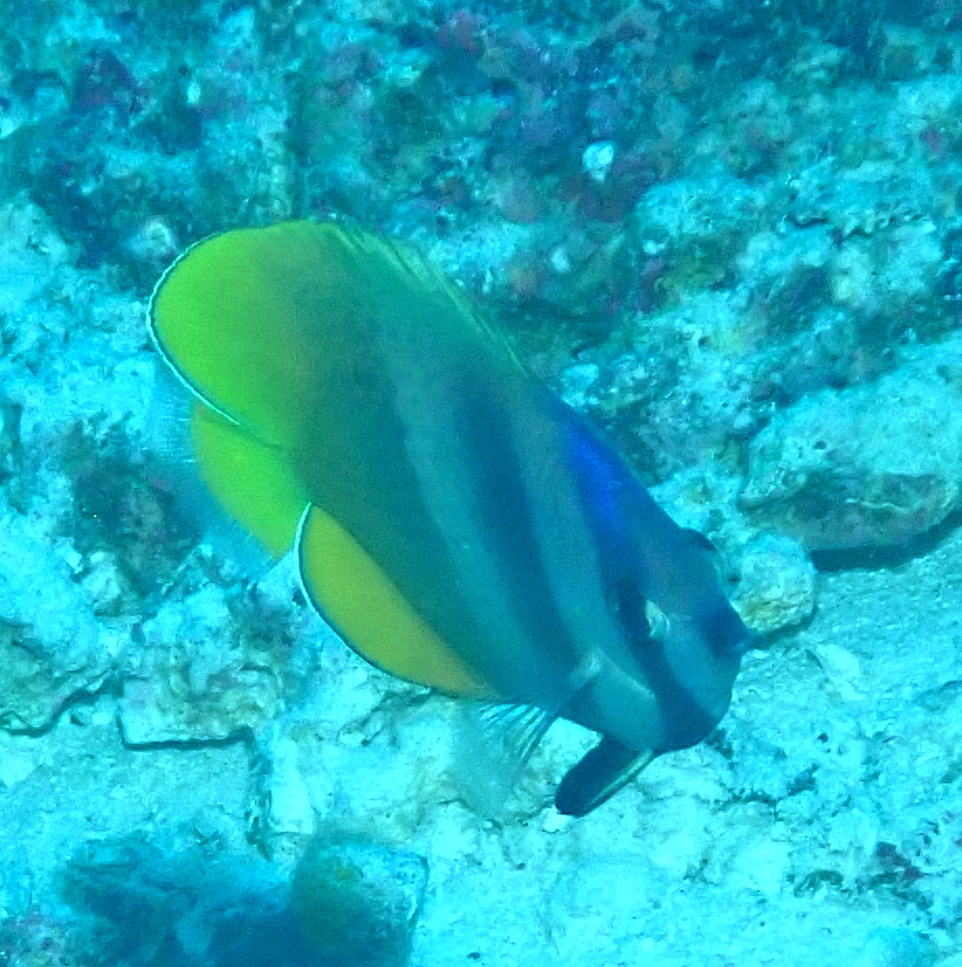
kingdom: Animalia
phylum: Chordata
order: Perciformes
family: Chaetodontidae
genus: Chaetodon
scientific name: Chaetodon kleinii
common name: Klein's butterflyfish
